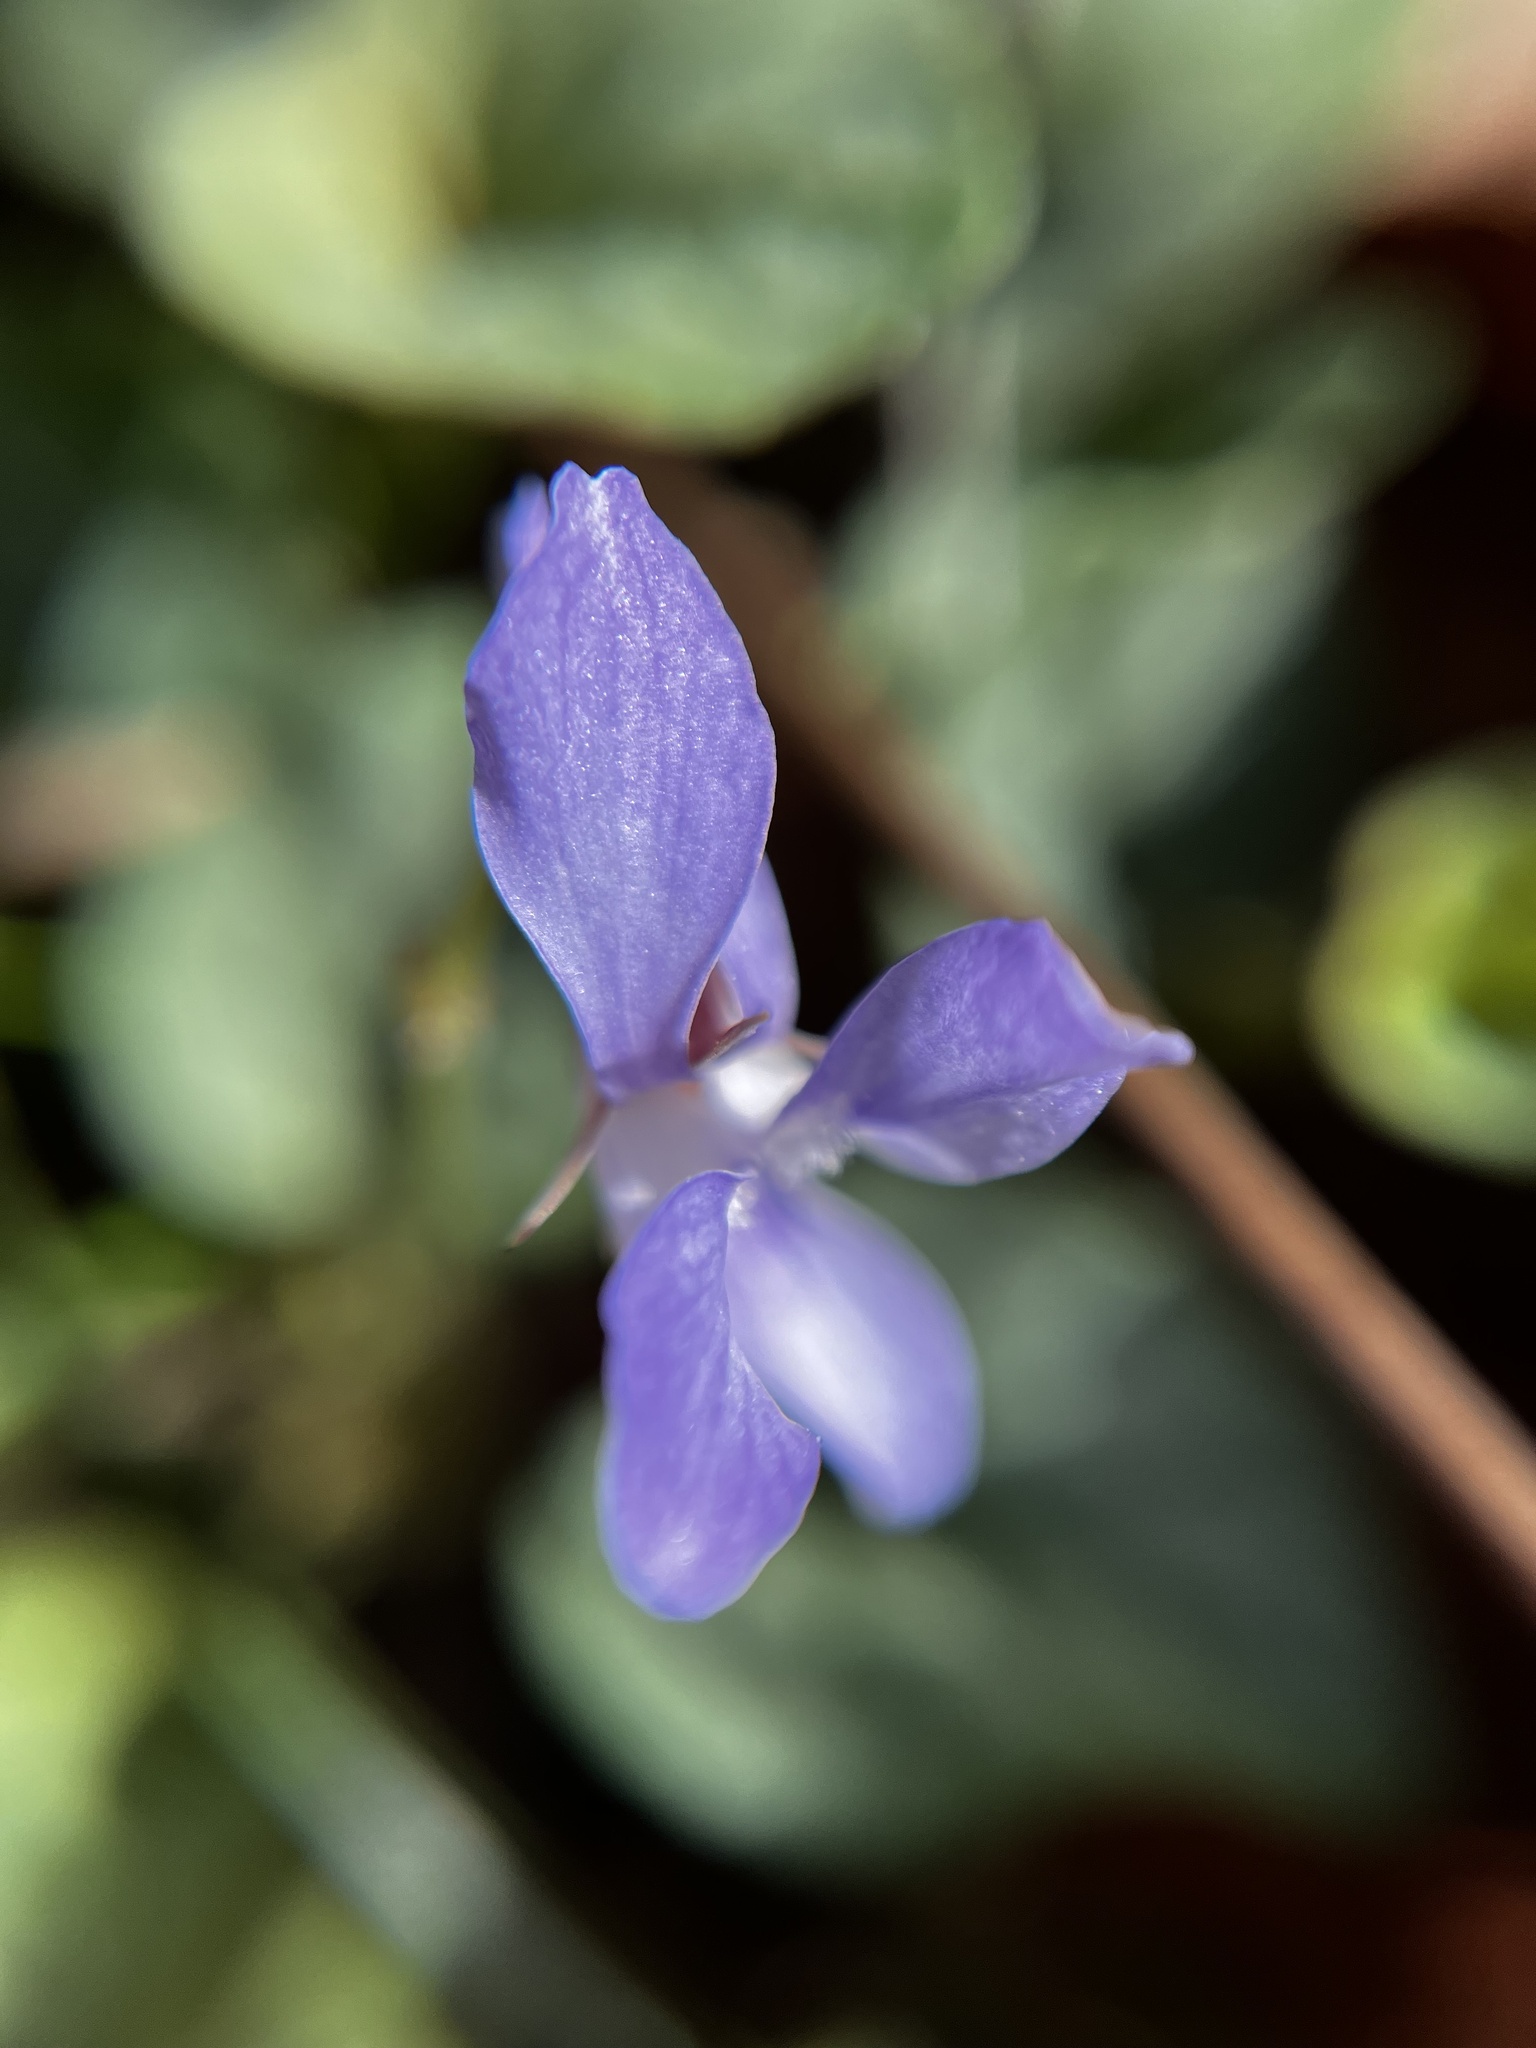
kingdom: Plantae
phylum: Tracheophyta
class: Magnoliopsida
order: Malpighiales
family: Violaceae
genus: Viola
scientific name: Viola walteri
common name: Prostrate southern violet
